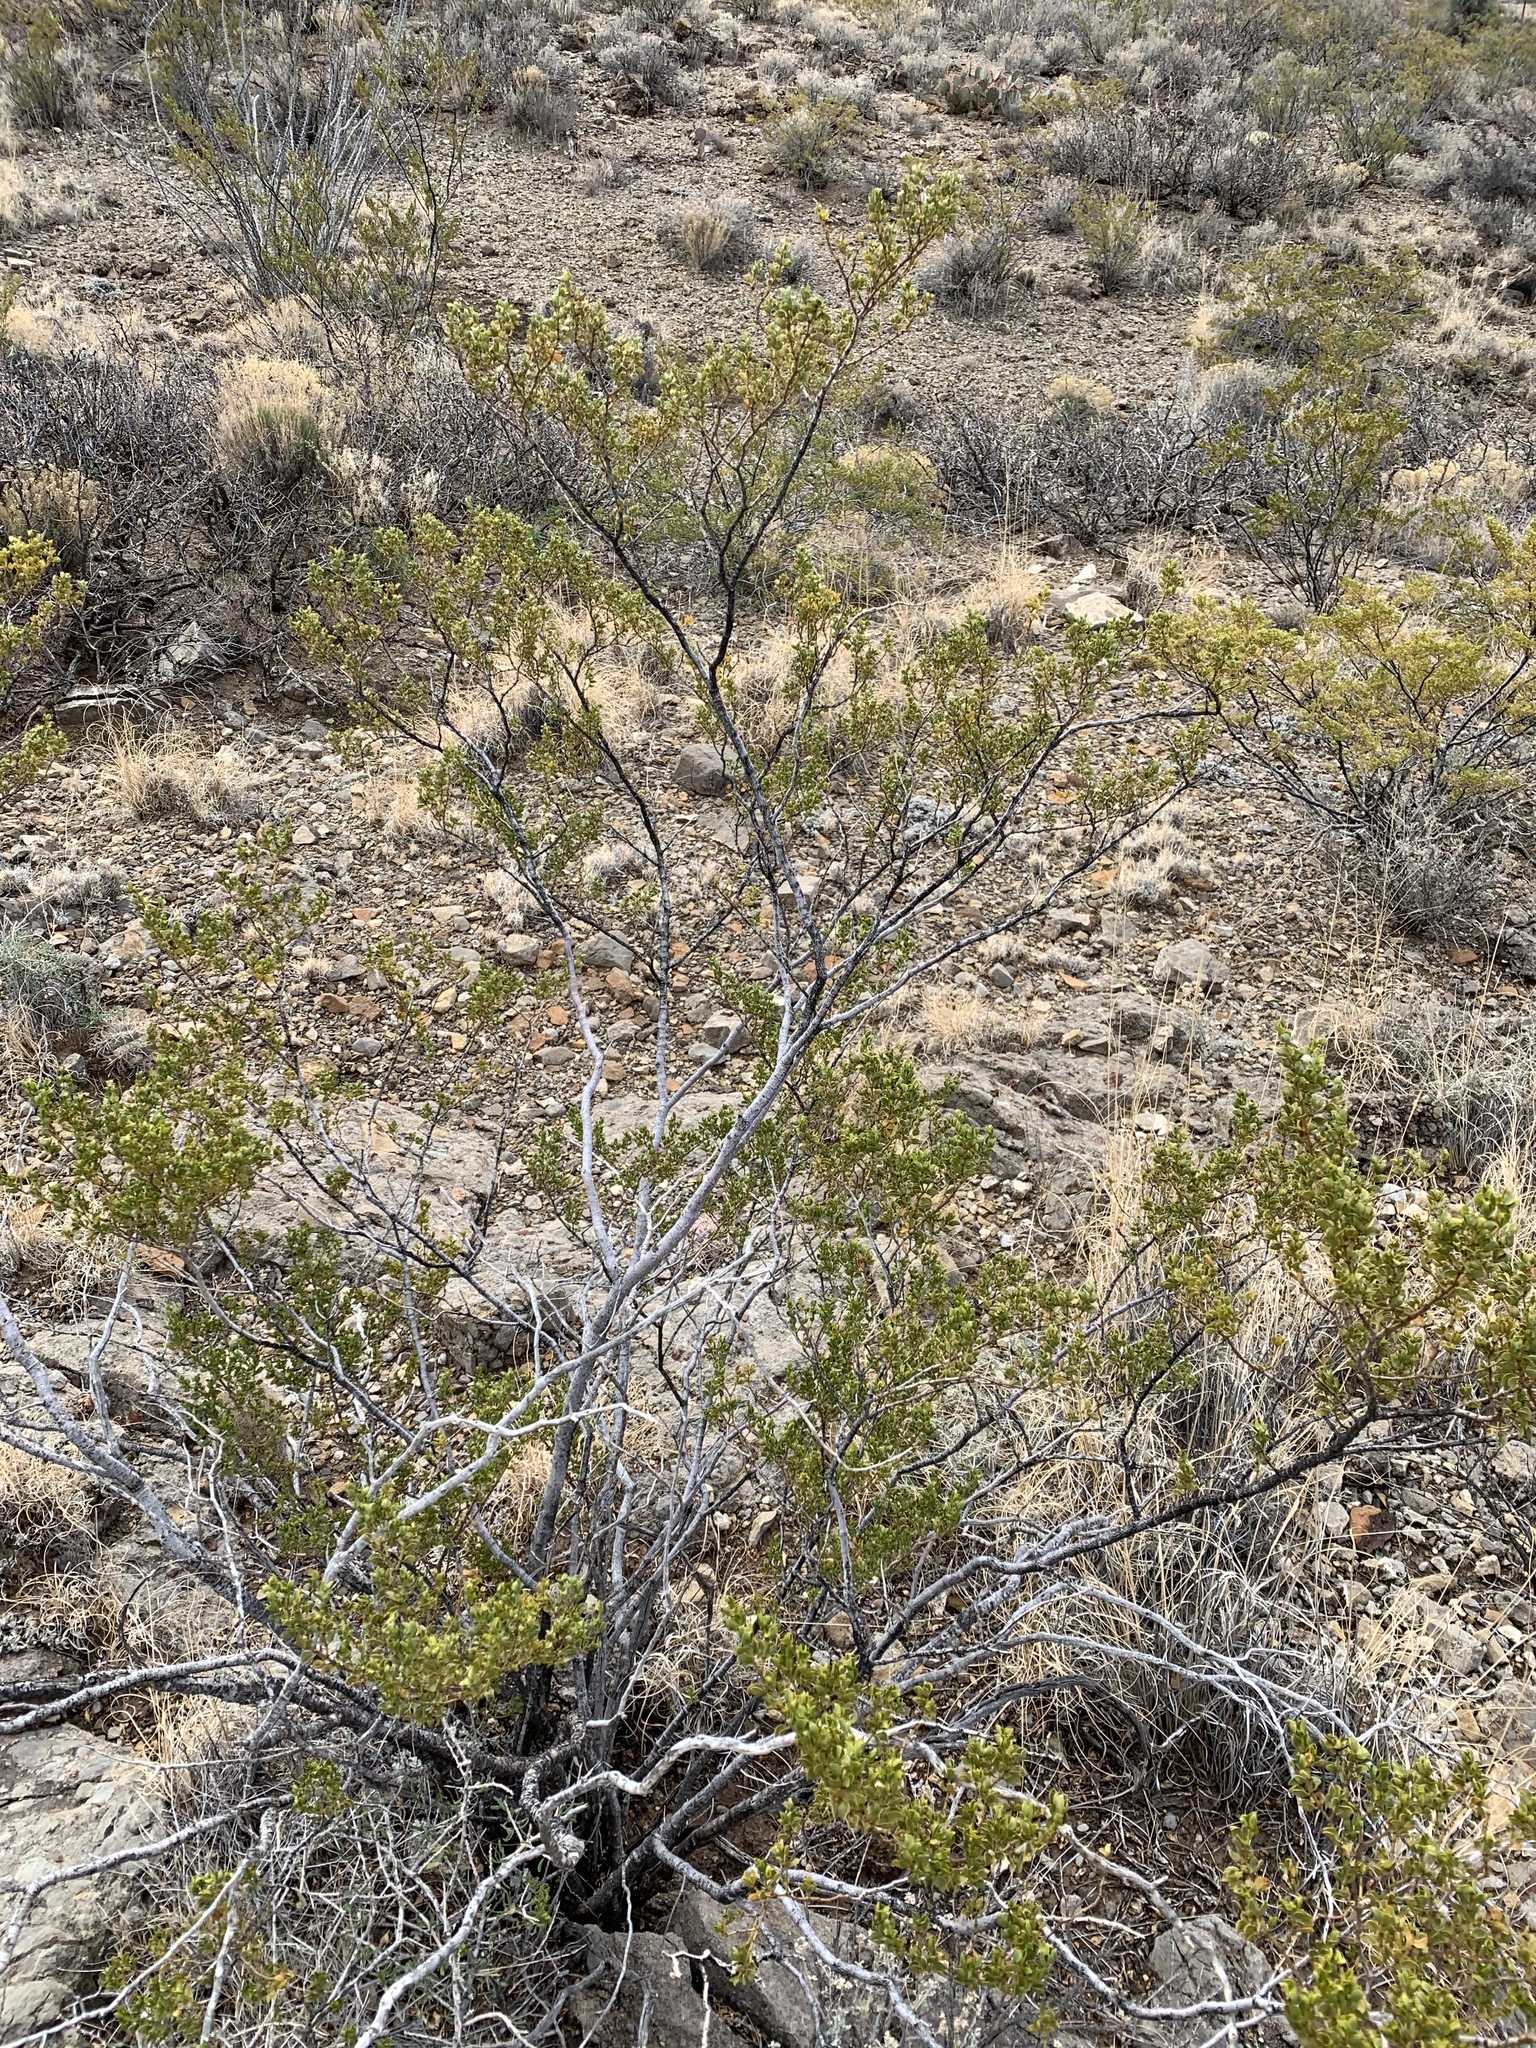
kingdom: Plantae
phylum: Tracheophyta
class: Magnoliopsida
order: Zygophyllales
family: Zygophyllaceae
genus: Larrea
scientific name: Larrea tridentata
